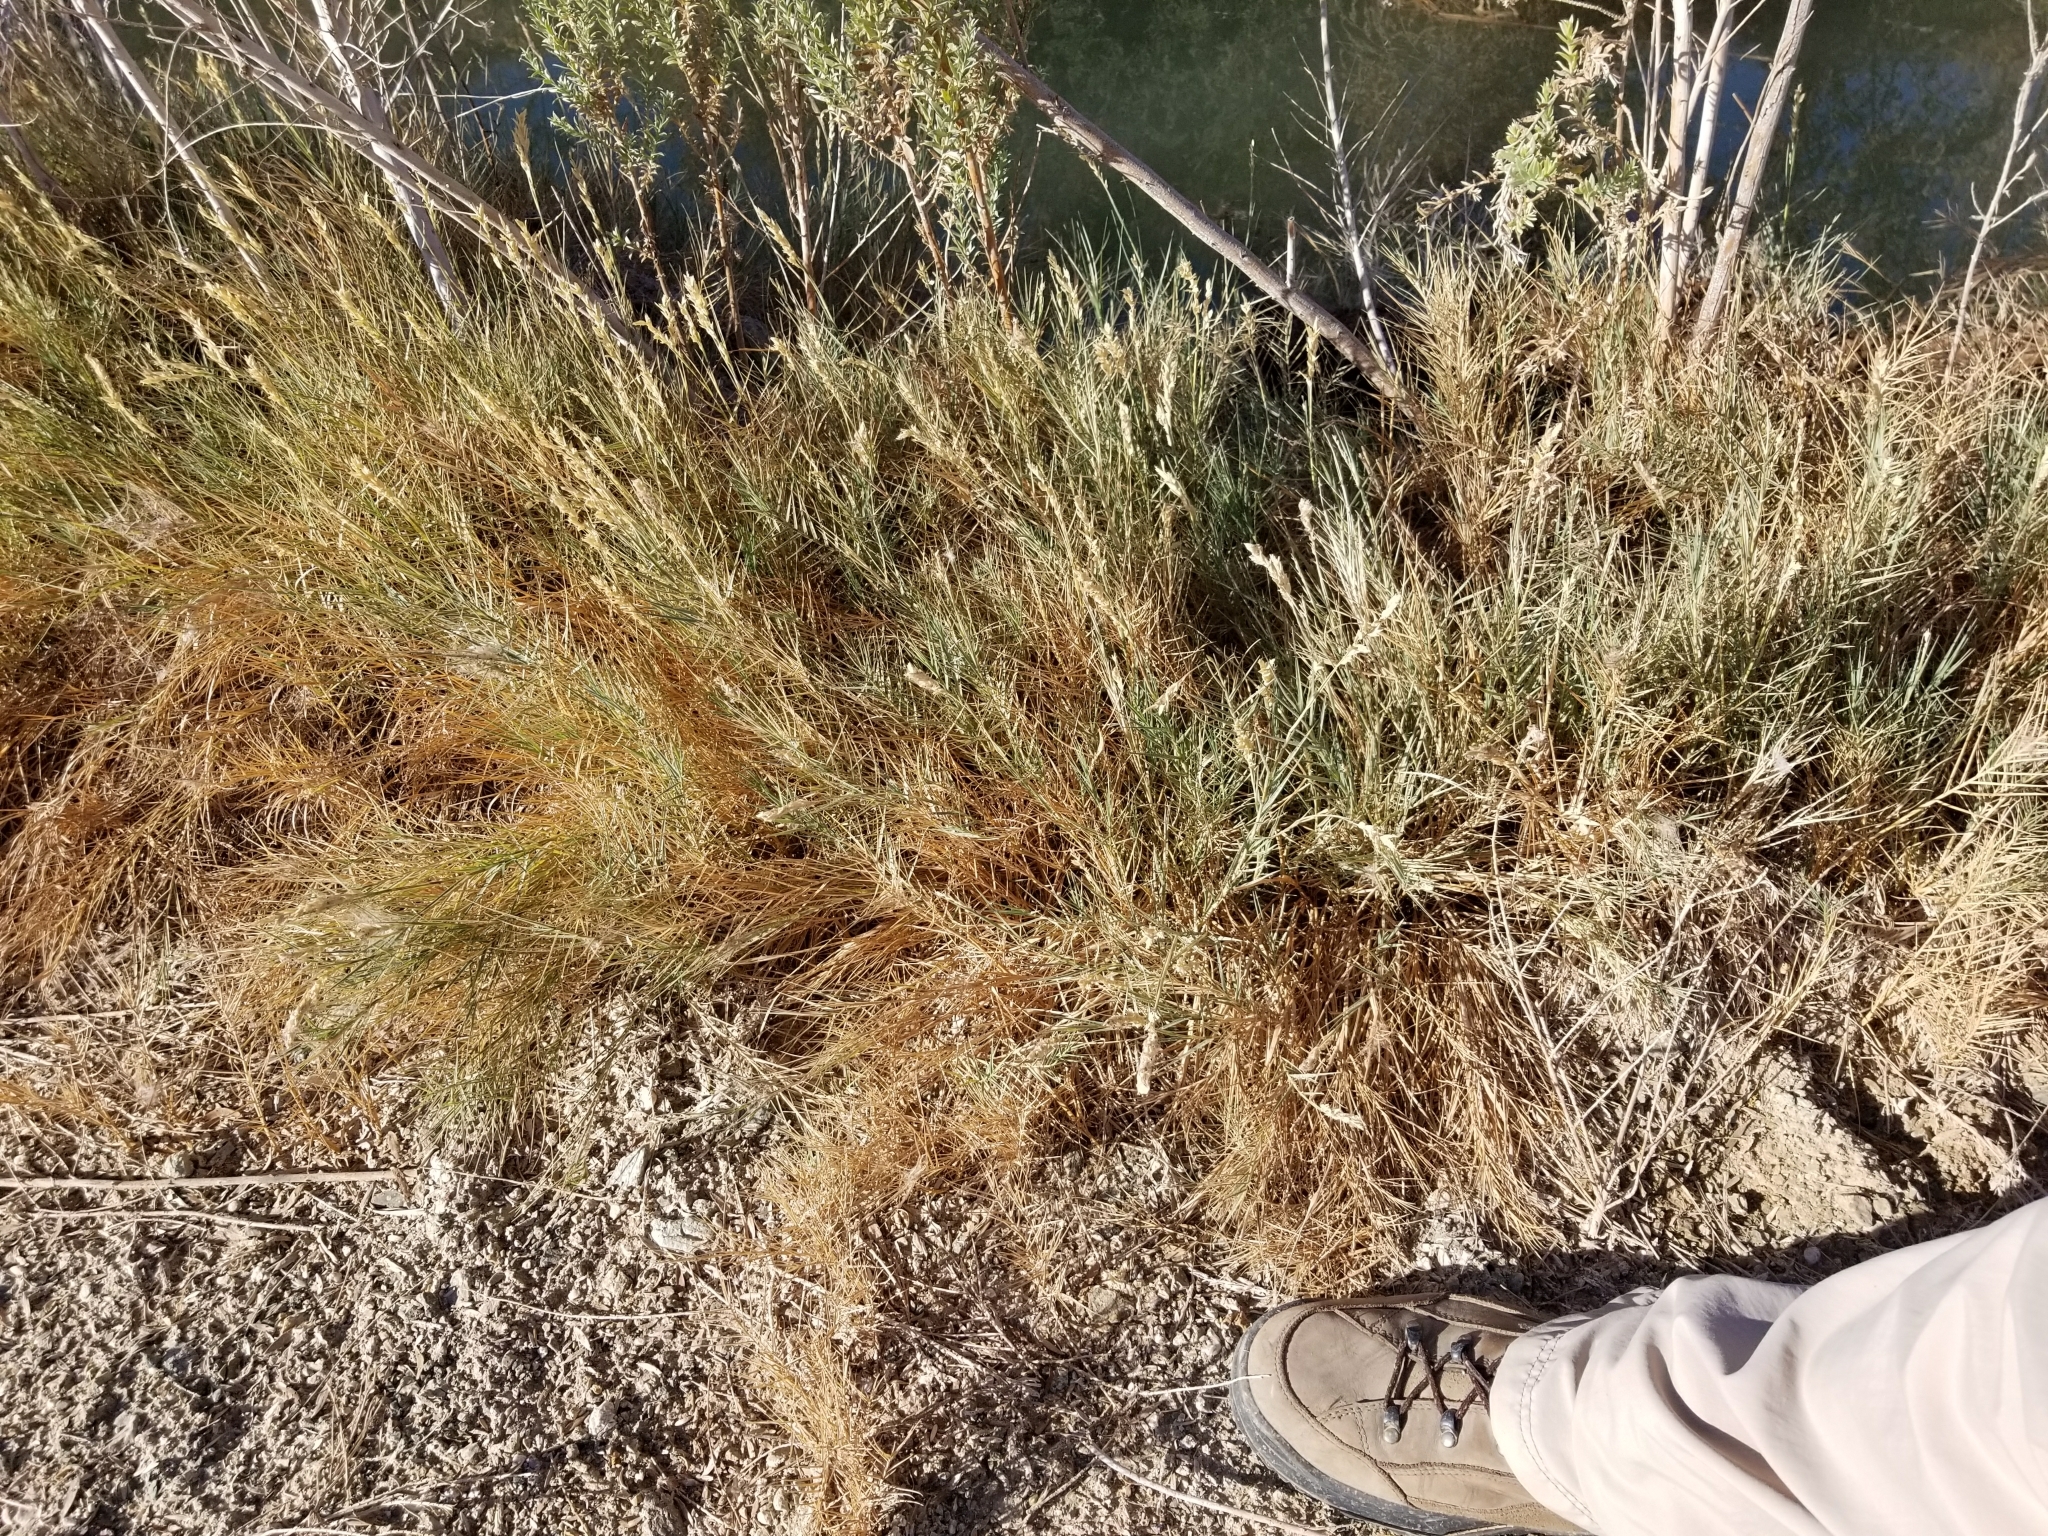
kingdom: Plantae
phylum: Tracheophyta
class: Liliopsida
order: Poales
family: Poaceae
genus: Distichlis
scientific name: Distichlis spicata
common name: Saltgrass
